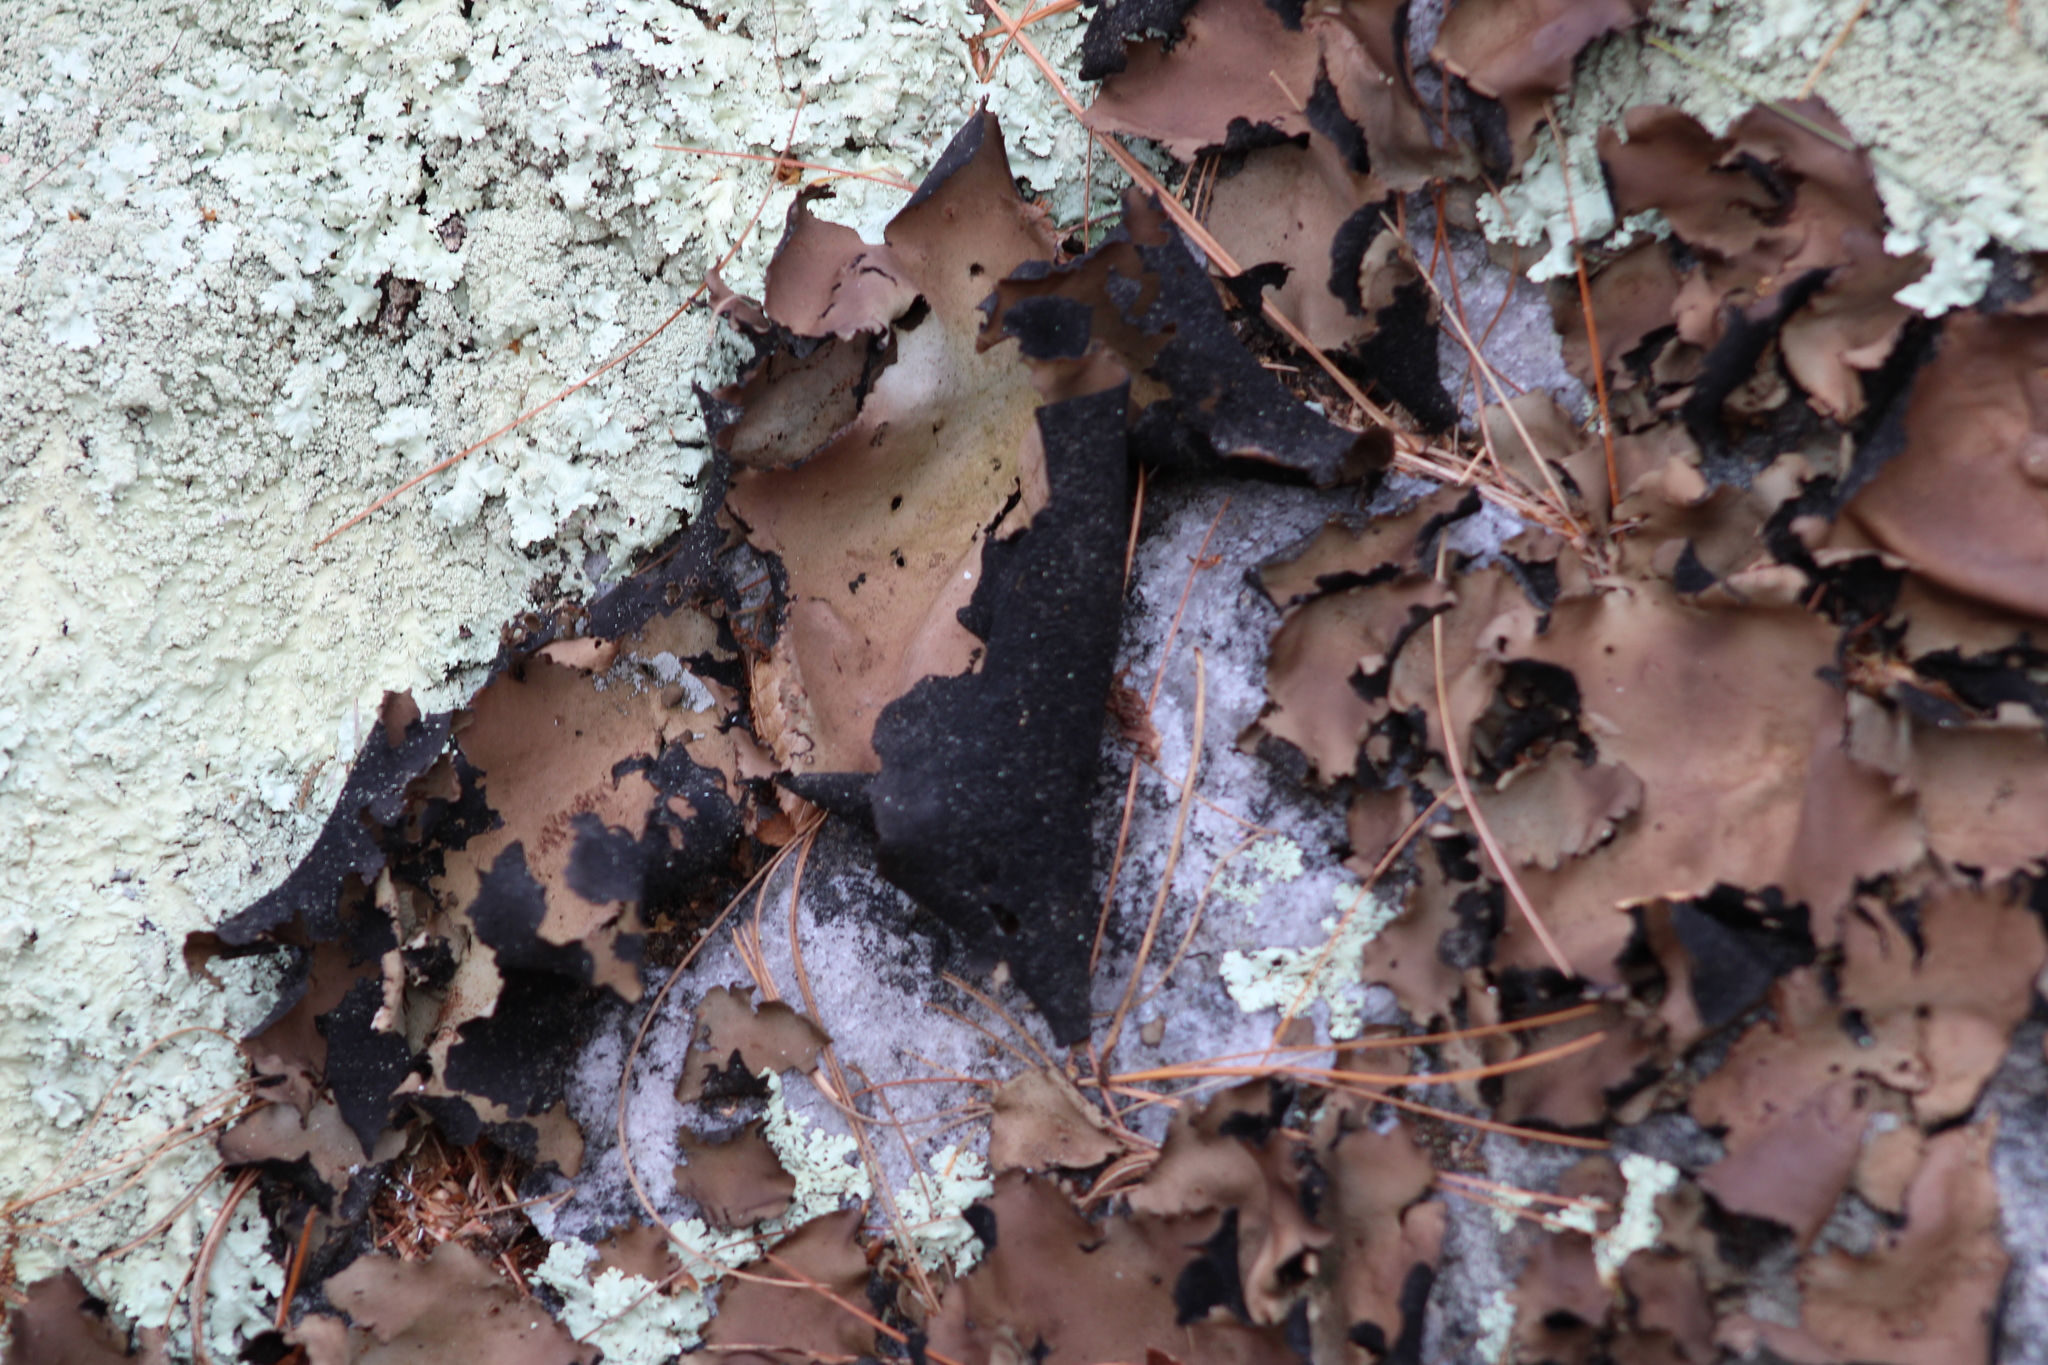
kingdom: Fungi
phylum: Ascomycota
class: Lecanoromycetes
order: Umbilicariales
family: Umbilicariaceae
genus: Umbilicaria
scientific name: Umbilicaria mammulata
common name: Smooth rock tripe
